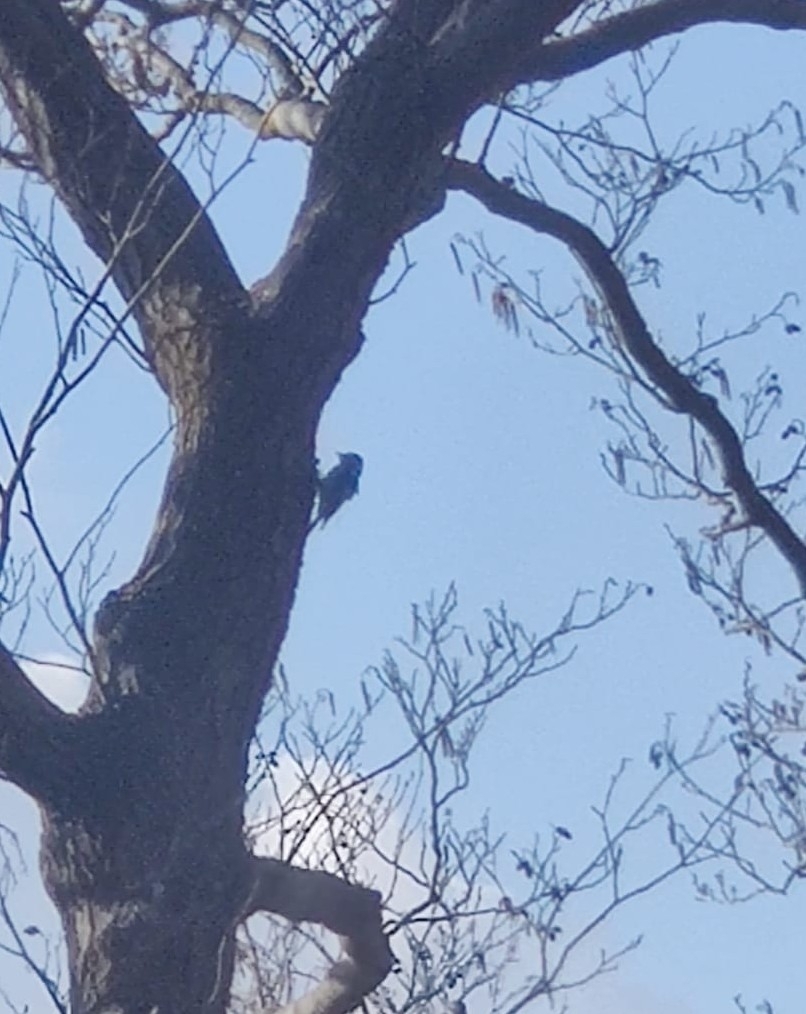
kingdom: Animalia
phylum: Chordata
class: Aves
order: Piciformes
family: Picidae
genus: Dryobates
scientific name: Dryobates minor
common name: Lesser spotted woodpecker
